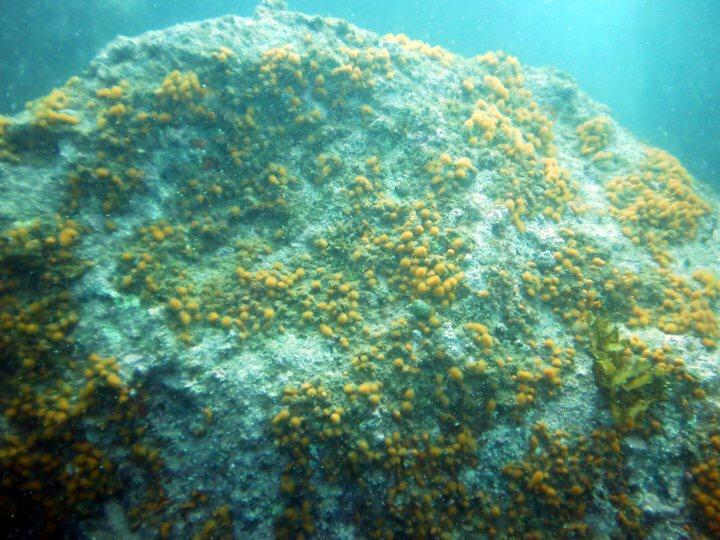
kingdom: Animalia
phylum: Chordata
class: Ascidiacea
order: Aplousobranchia
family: Pseudodistomidae
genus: Pseudodistoma
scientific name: Pseudodistoma novaezelandiae
